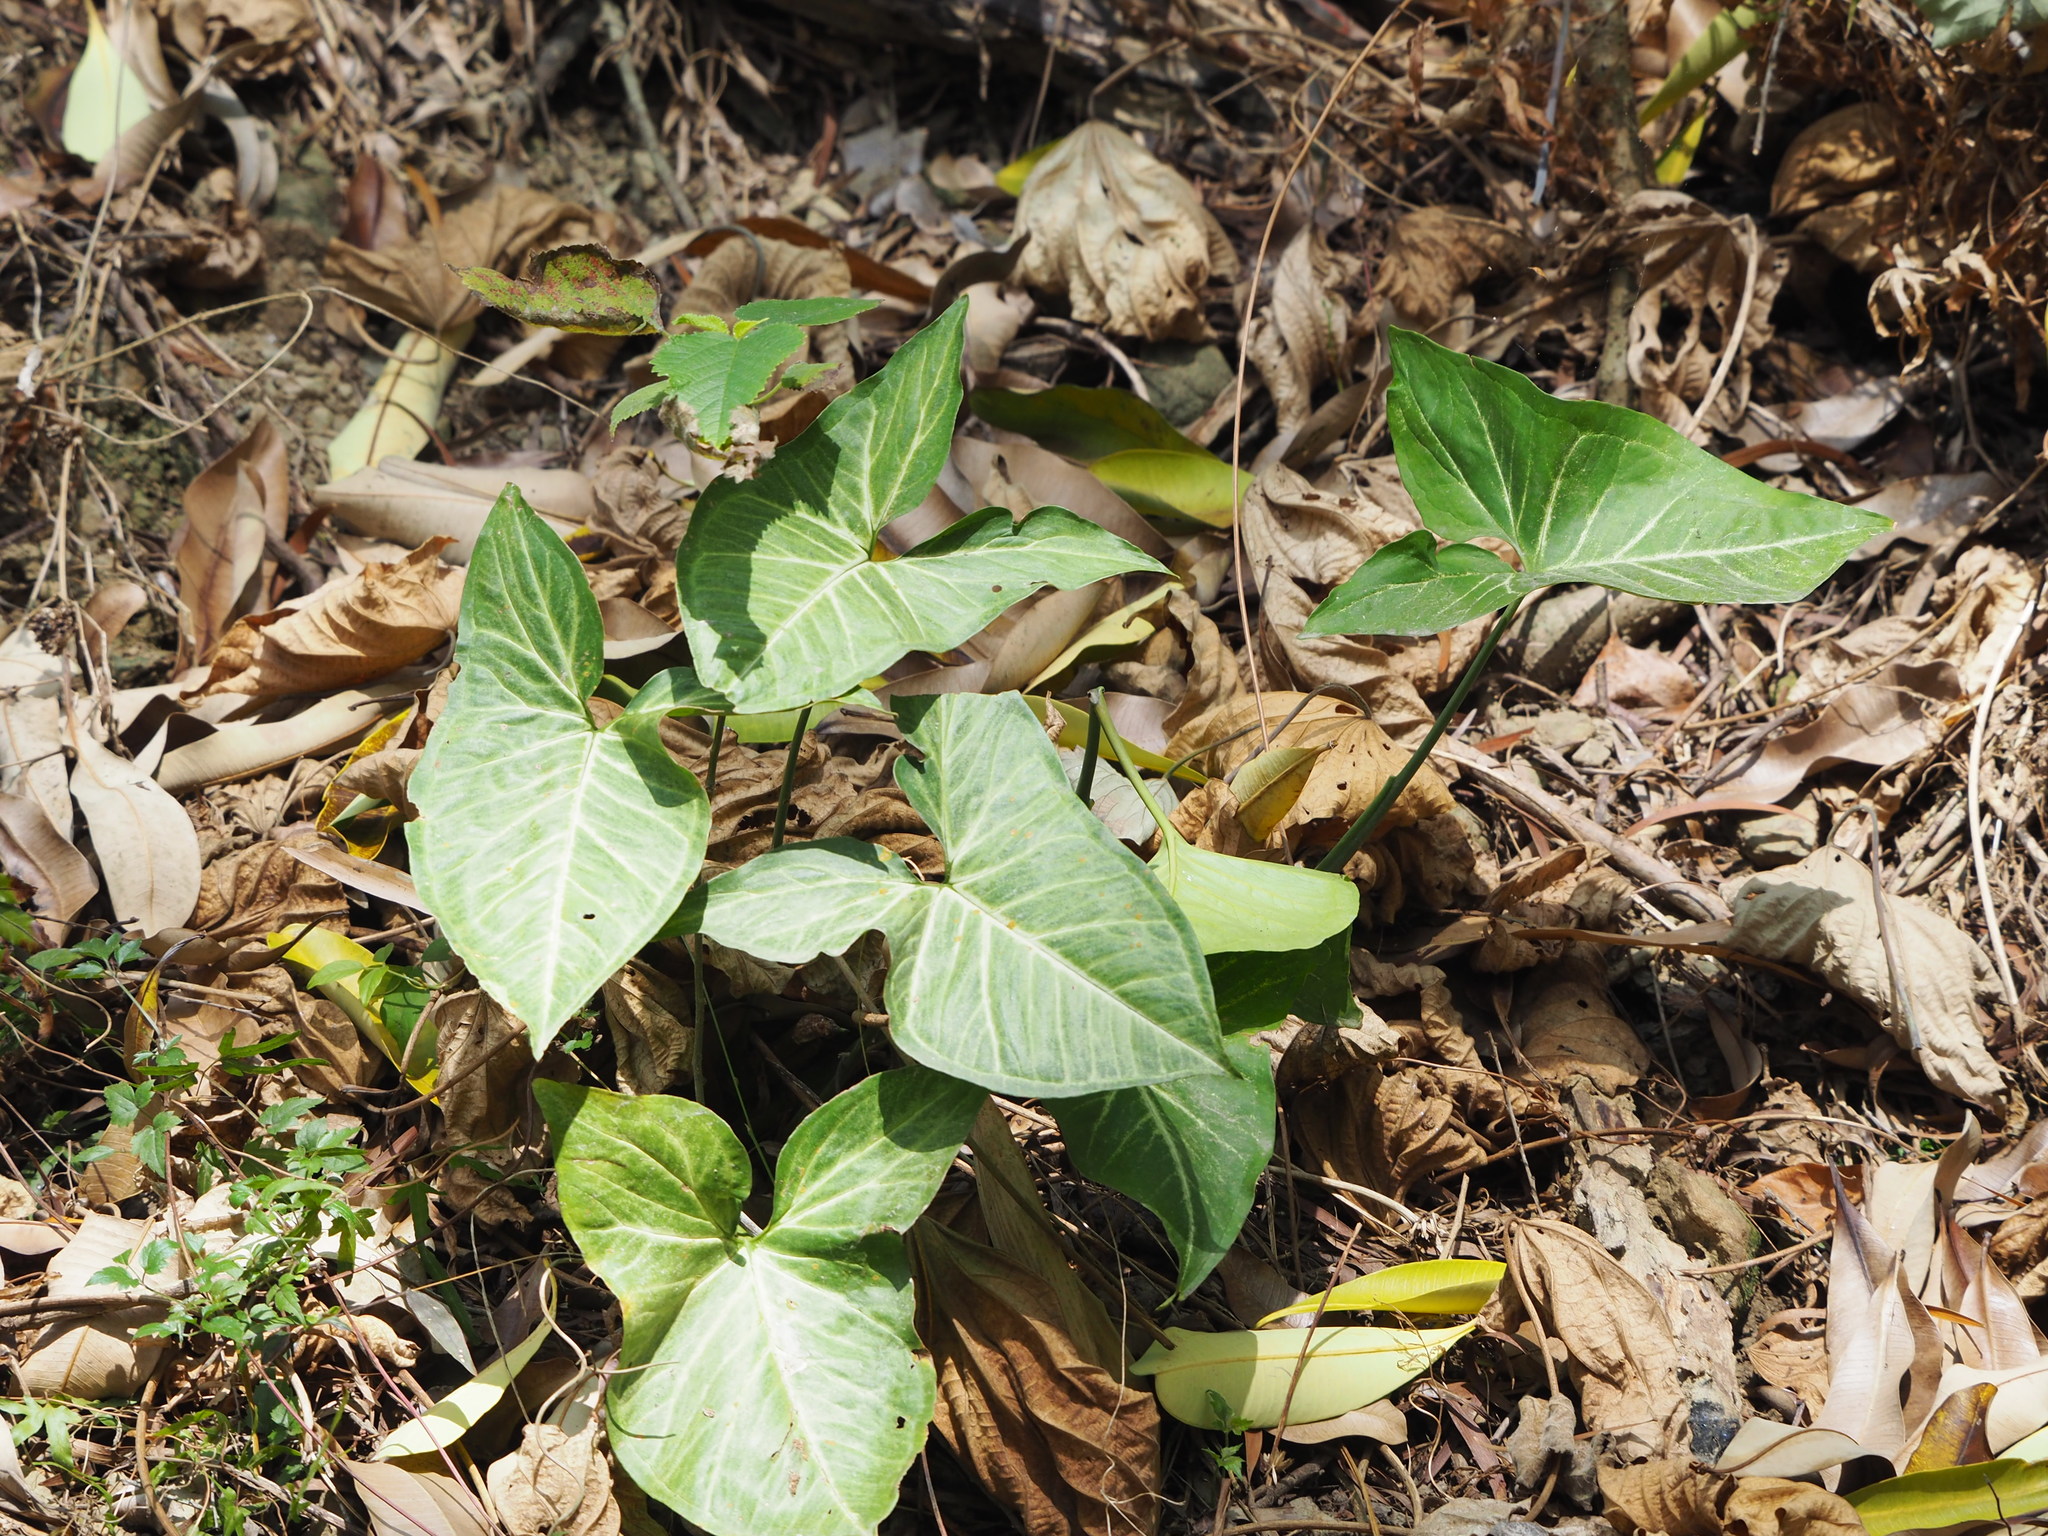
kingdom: Plantae
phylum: Tracheophyta
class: Liliopsida
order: Alismatales
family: Araceae
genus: Syngonium
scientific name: Syngonium podophyllum
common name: American evergreen
